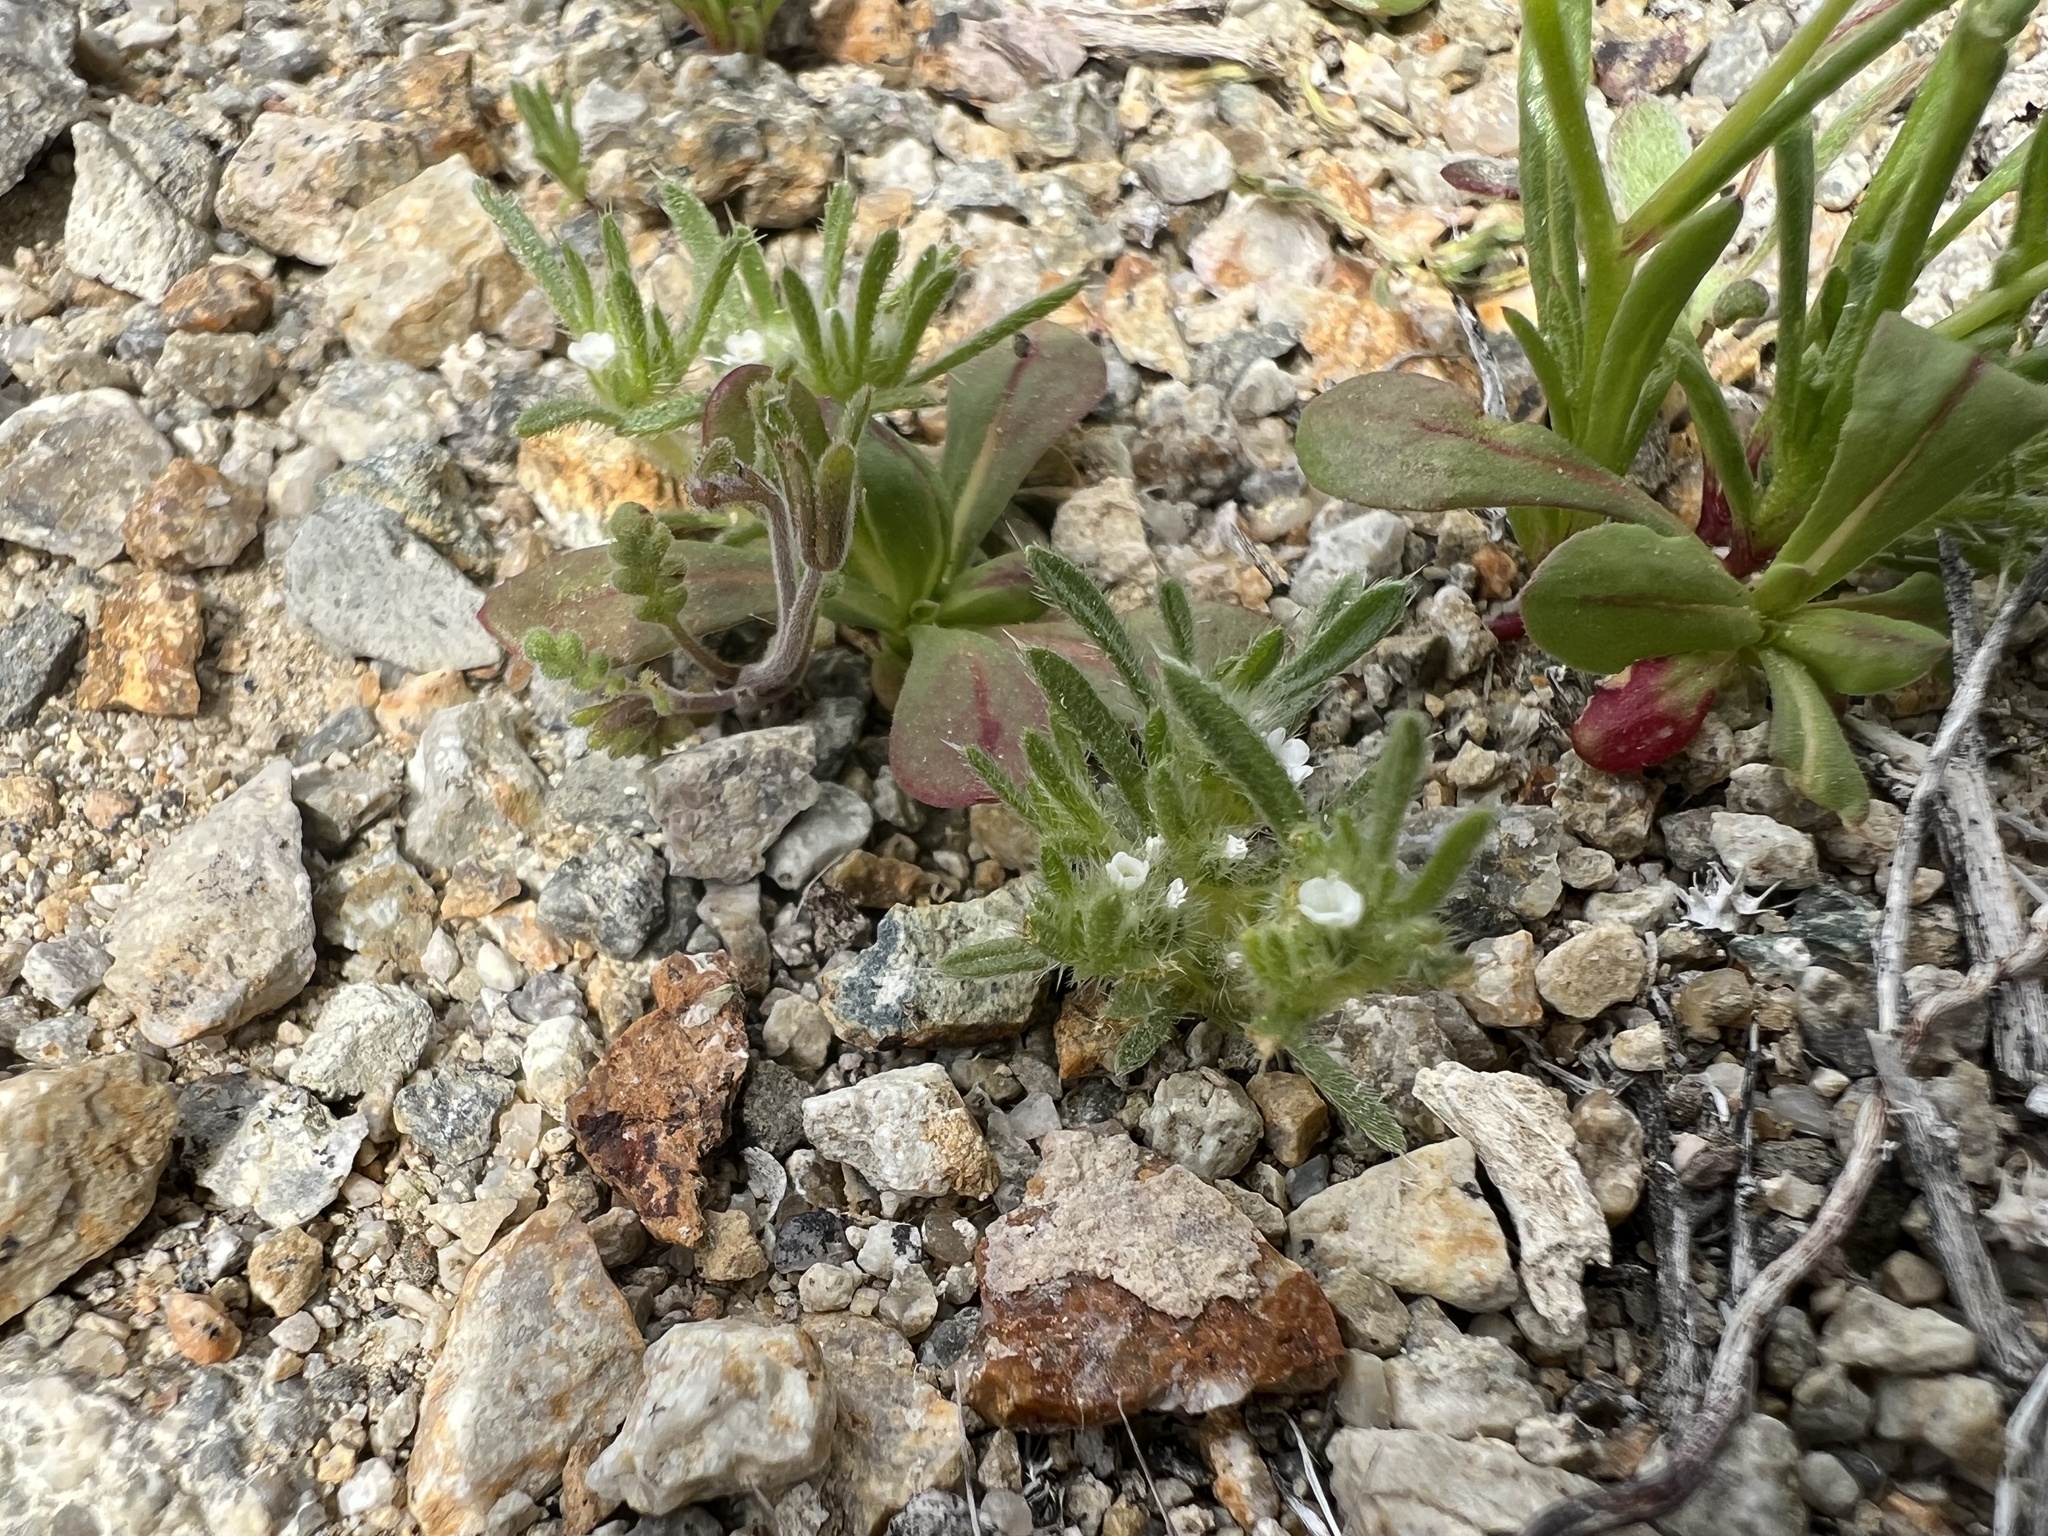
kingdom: Plantae
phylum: Tracheophyta
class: Magnoliopsida
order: Boraginales
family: Boraginaceae
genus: Greeneocharis
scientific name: Greeneocharis circumscissa
